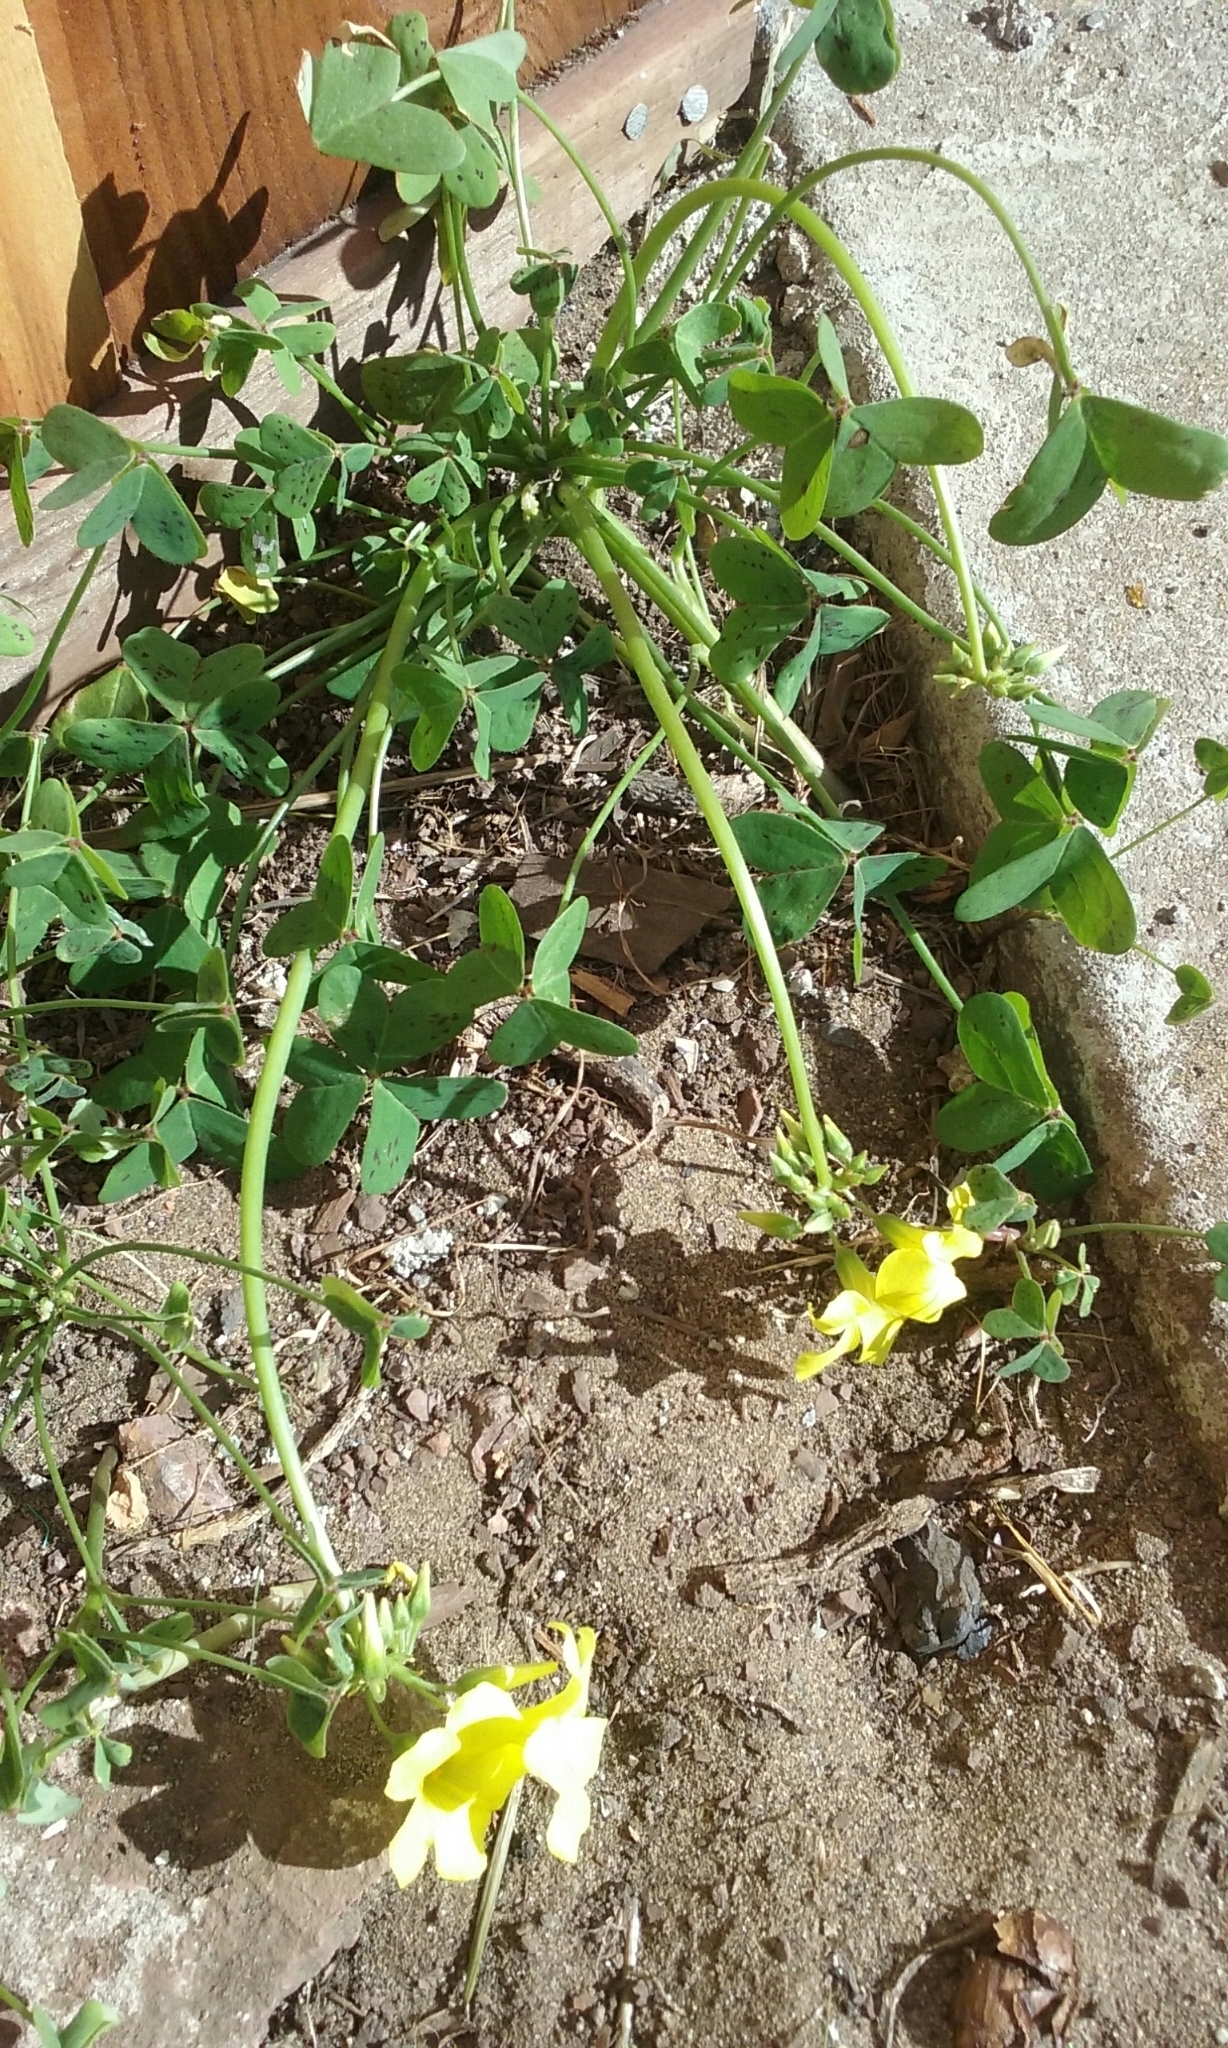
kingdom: Plantae
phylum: Tracheophyta
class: Magnoliopsida
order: Oxalidales
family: Oxalidaceae
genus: Oxalis
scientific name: Oxalis pes-caprae
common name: Bermuda-buttercup
